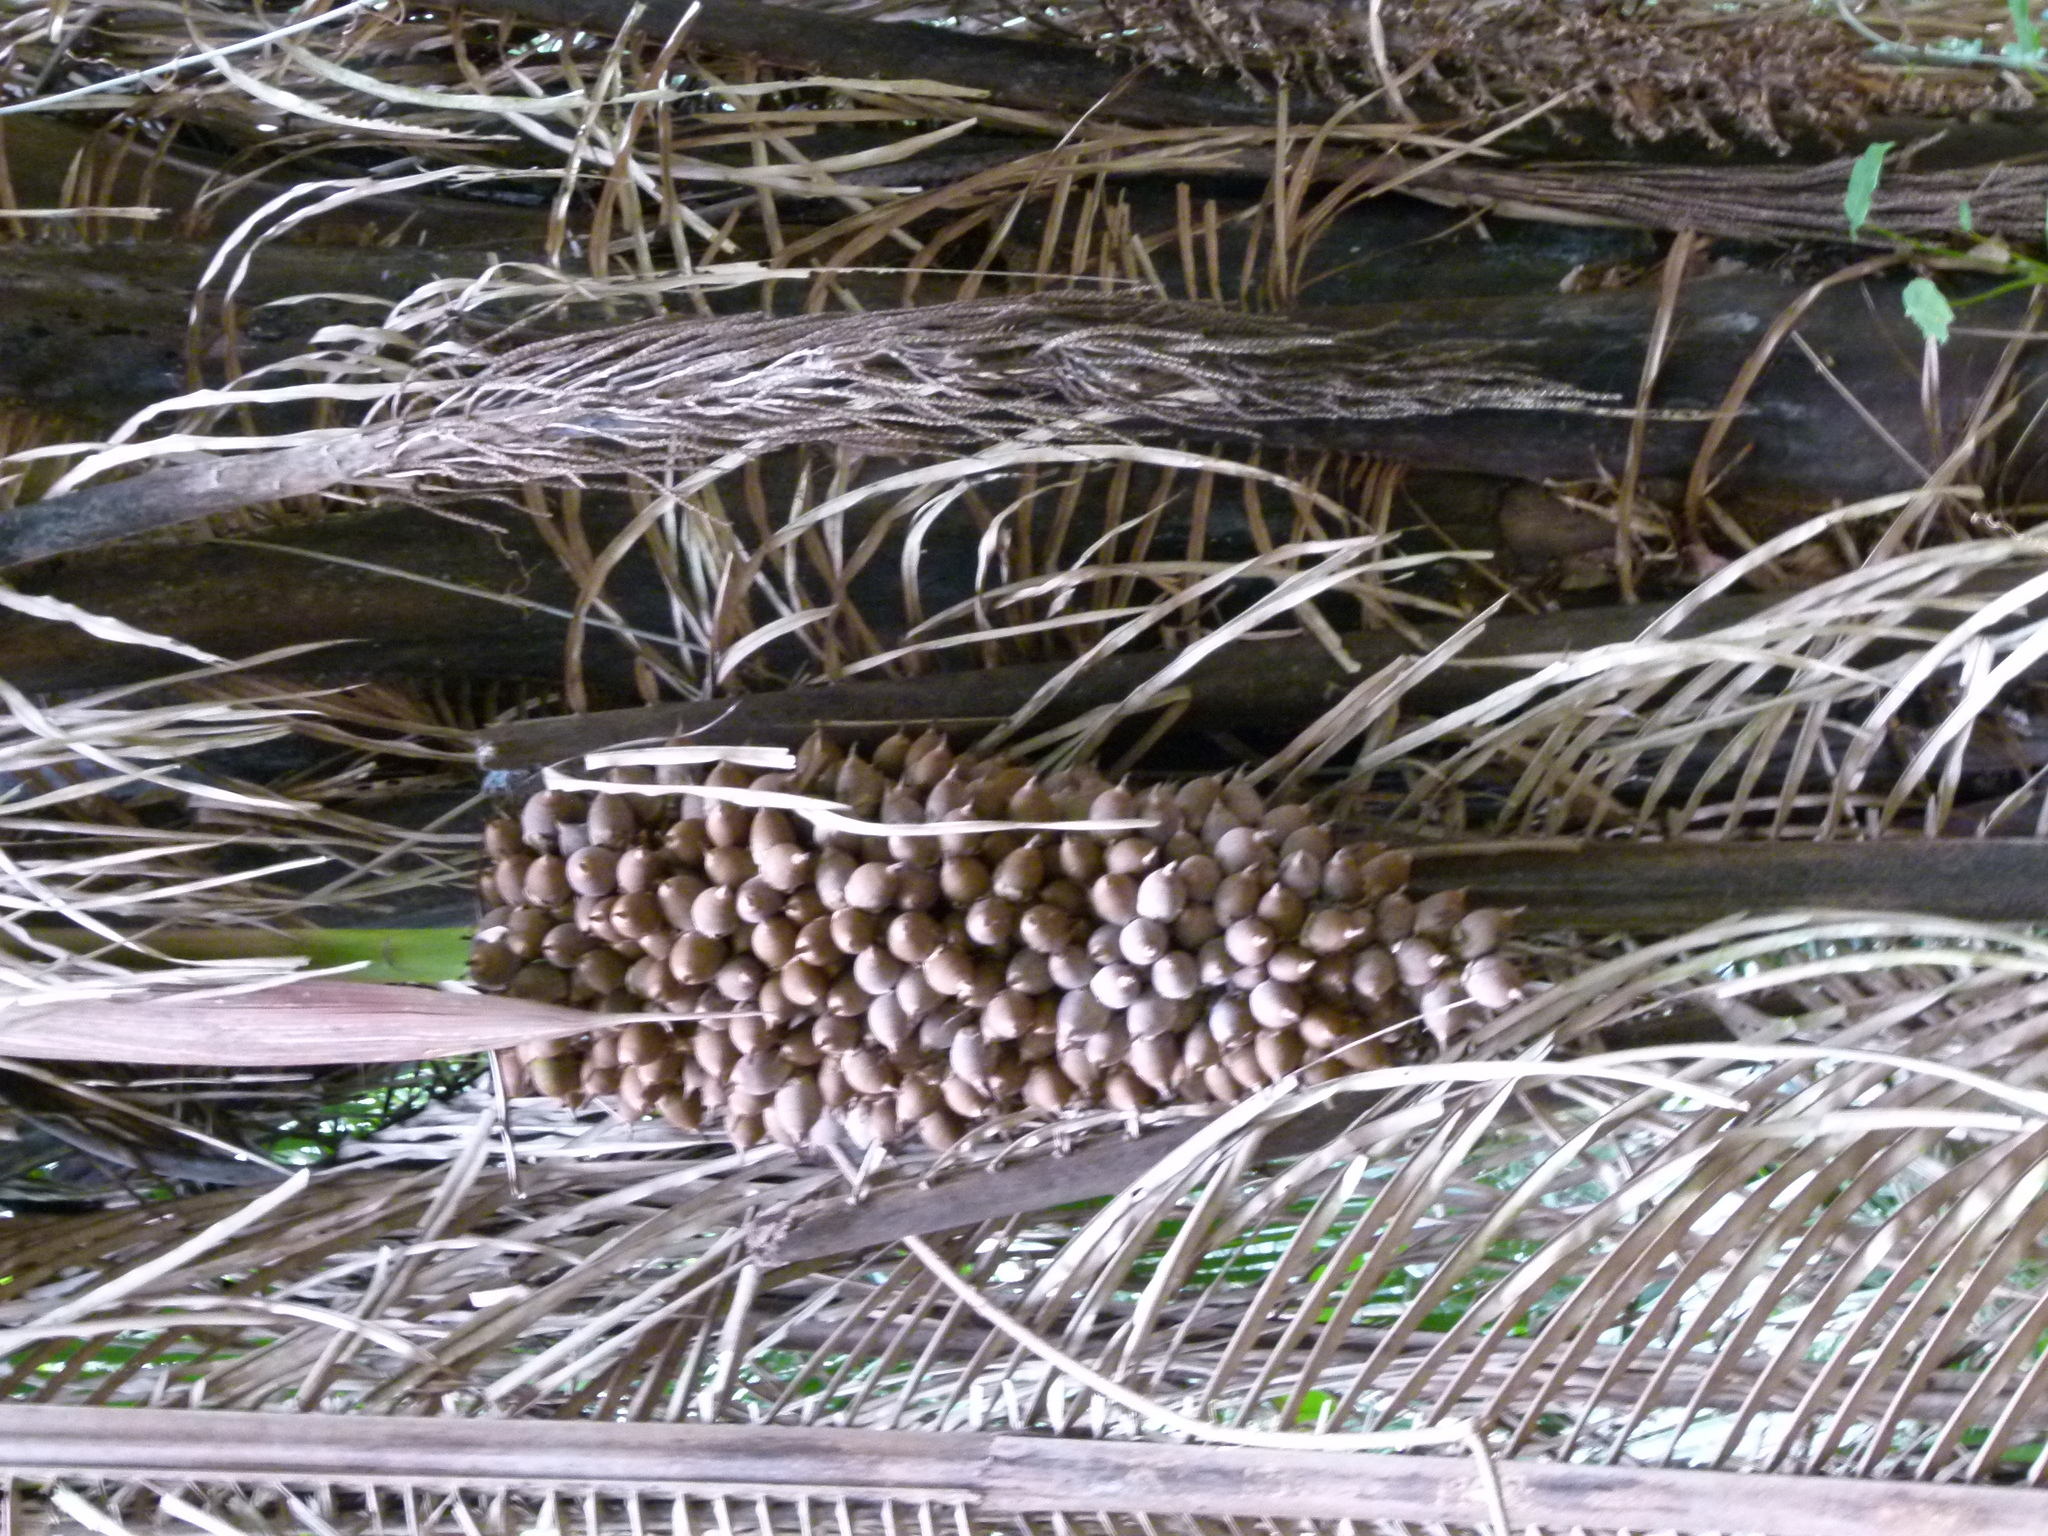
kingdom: Plantae
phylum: Tracheophyta
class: Liliopsida
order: Arecales
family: Arecaceae
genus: Attalea
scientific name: Attalea cohune
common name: Cohune palm
